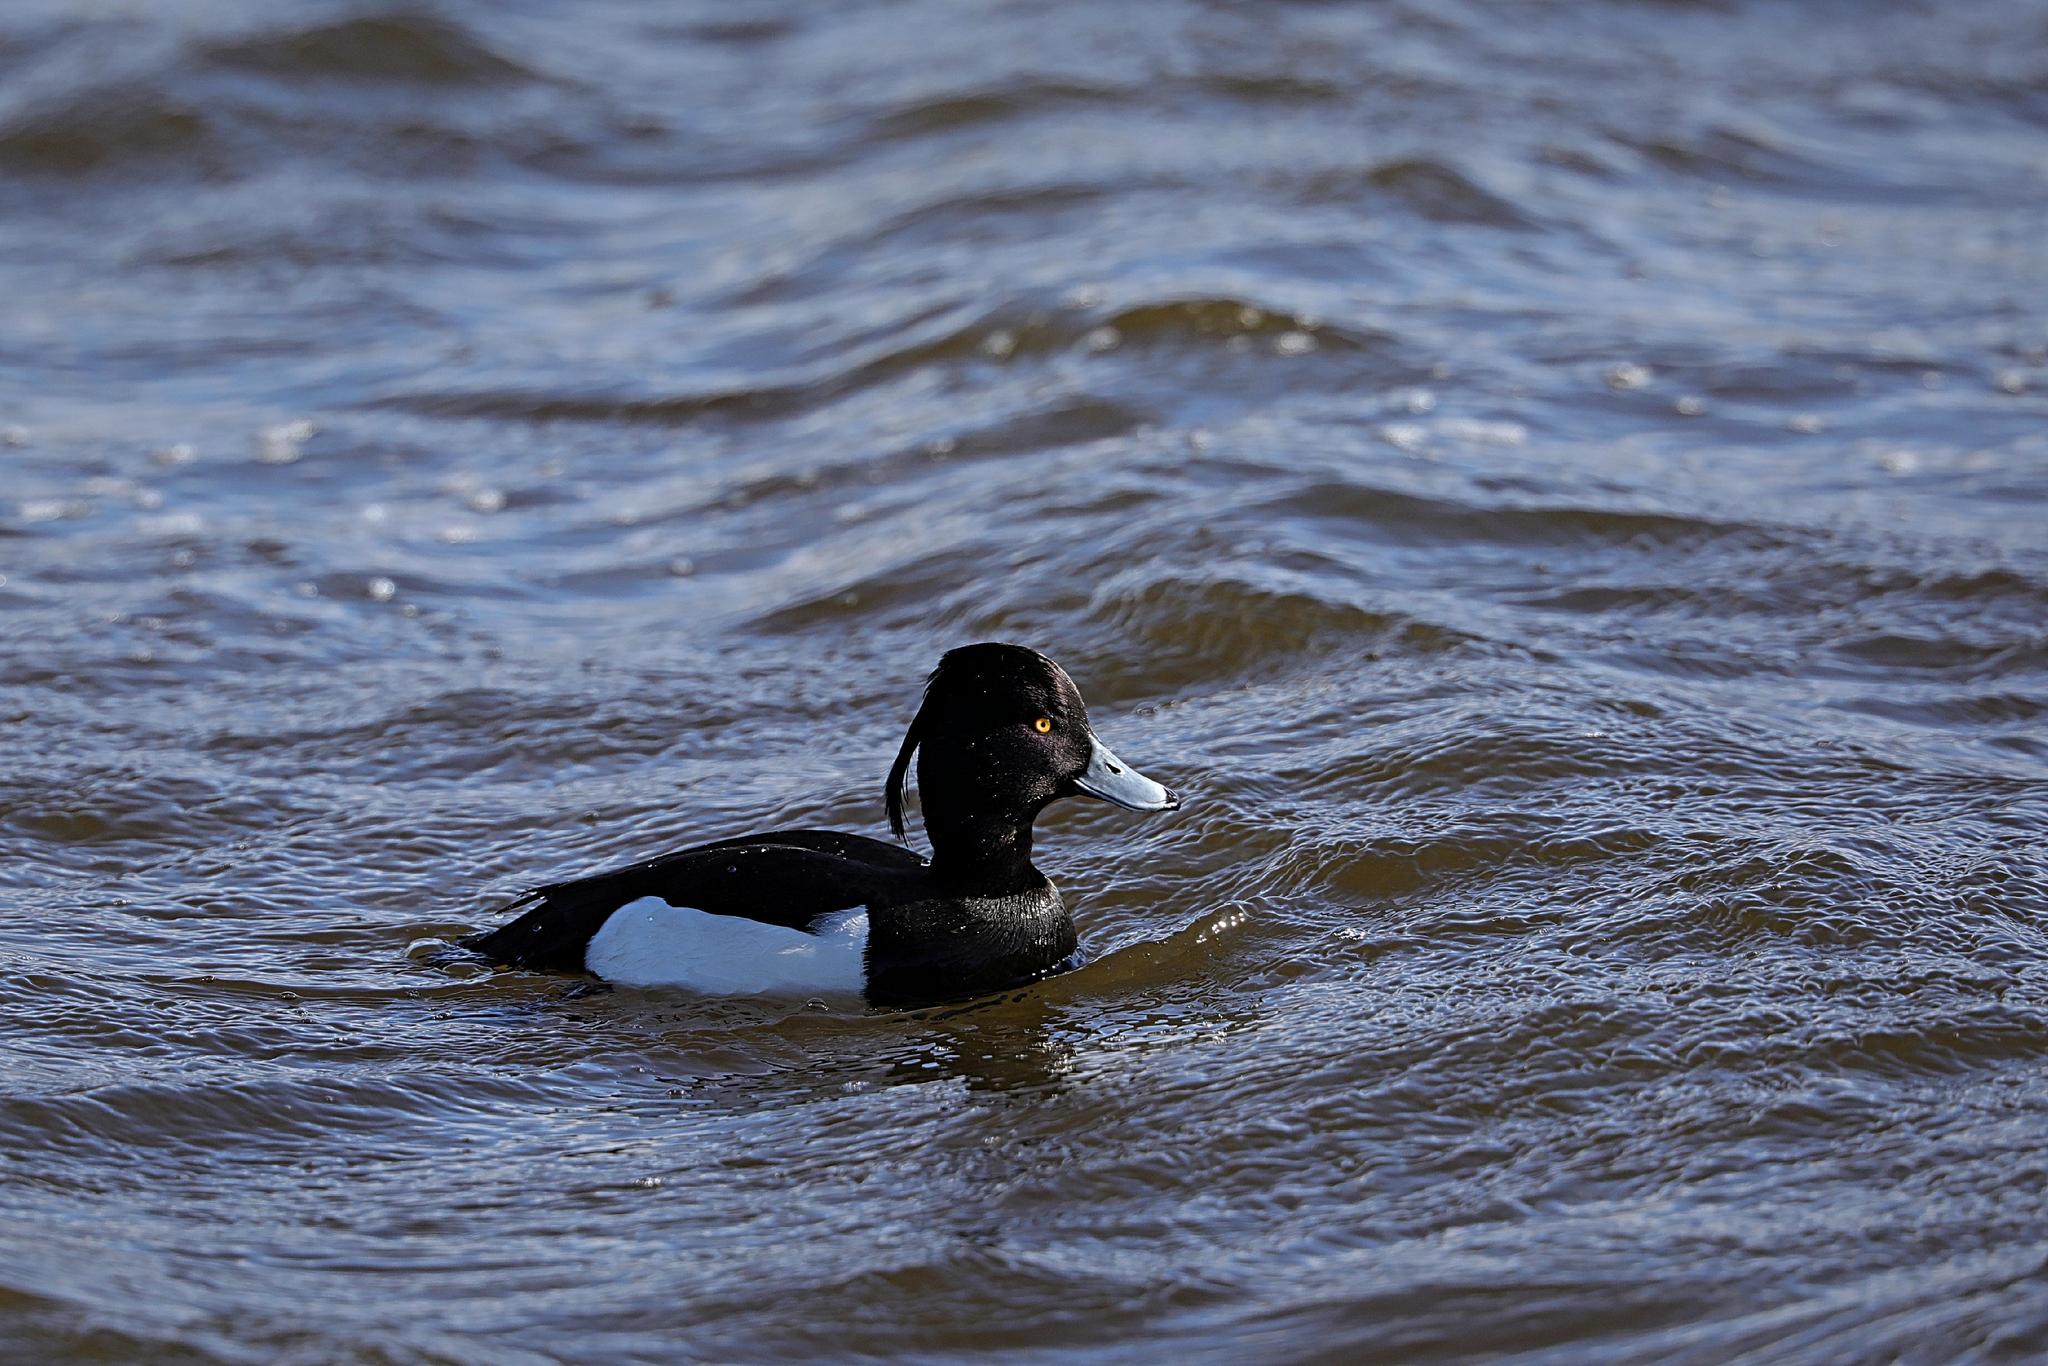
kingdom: Animalia
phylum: Chordata
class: Aves
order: Anseriformes
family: Anatidae
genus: Aythya
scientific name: Aythya fuligula
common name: Tufted duck
